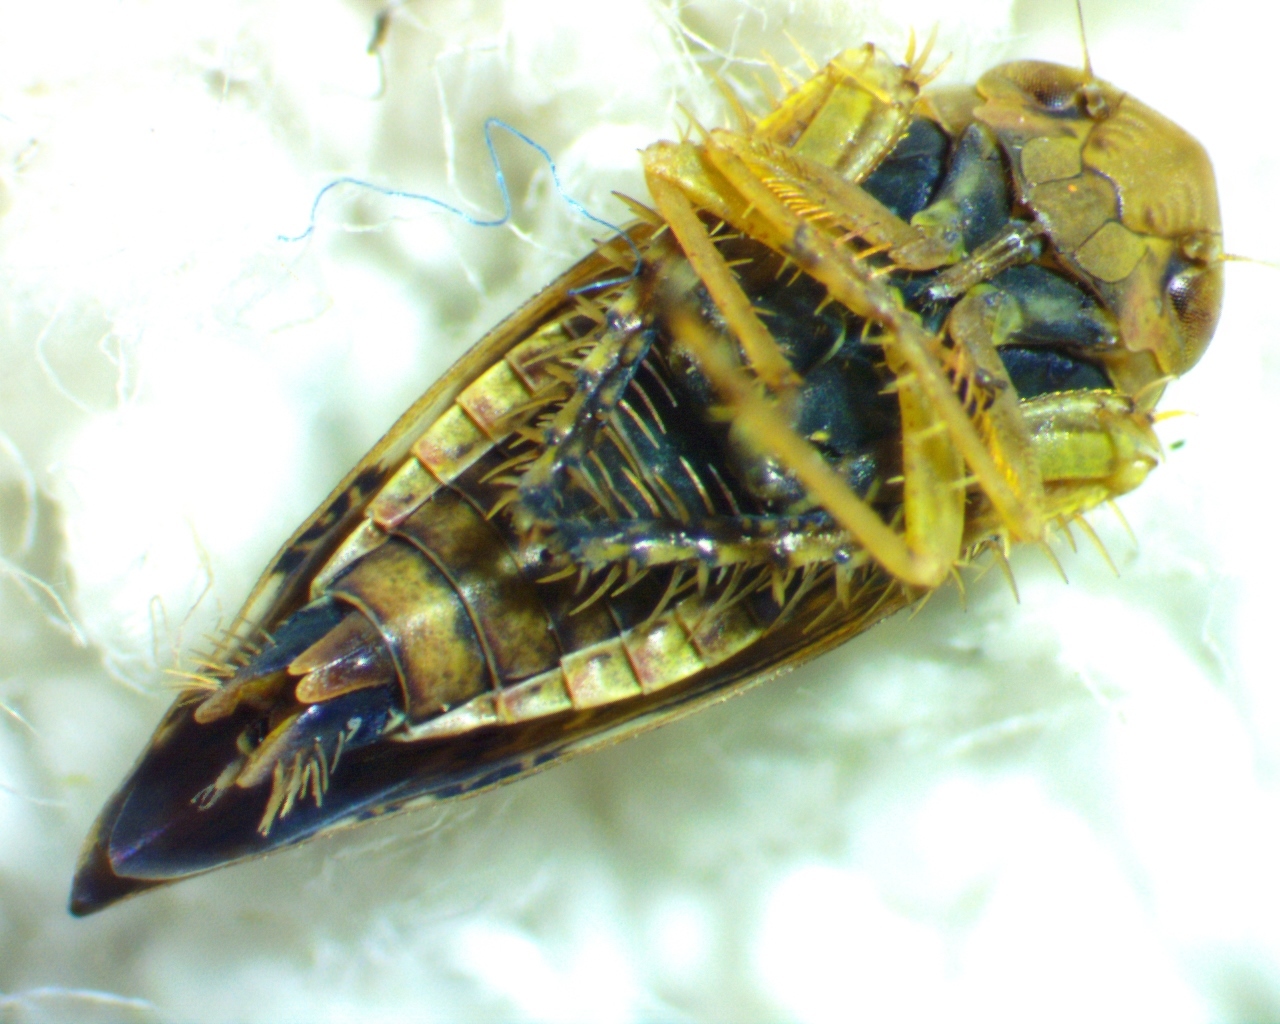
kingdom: Animalia
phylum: Arthropoda
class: Insecta
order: Hemiptera
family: Cicadellidae
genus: Acinopterus
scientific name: Acinopterus acuminatus
